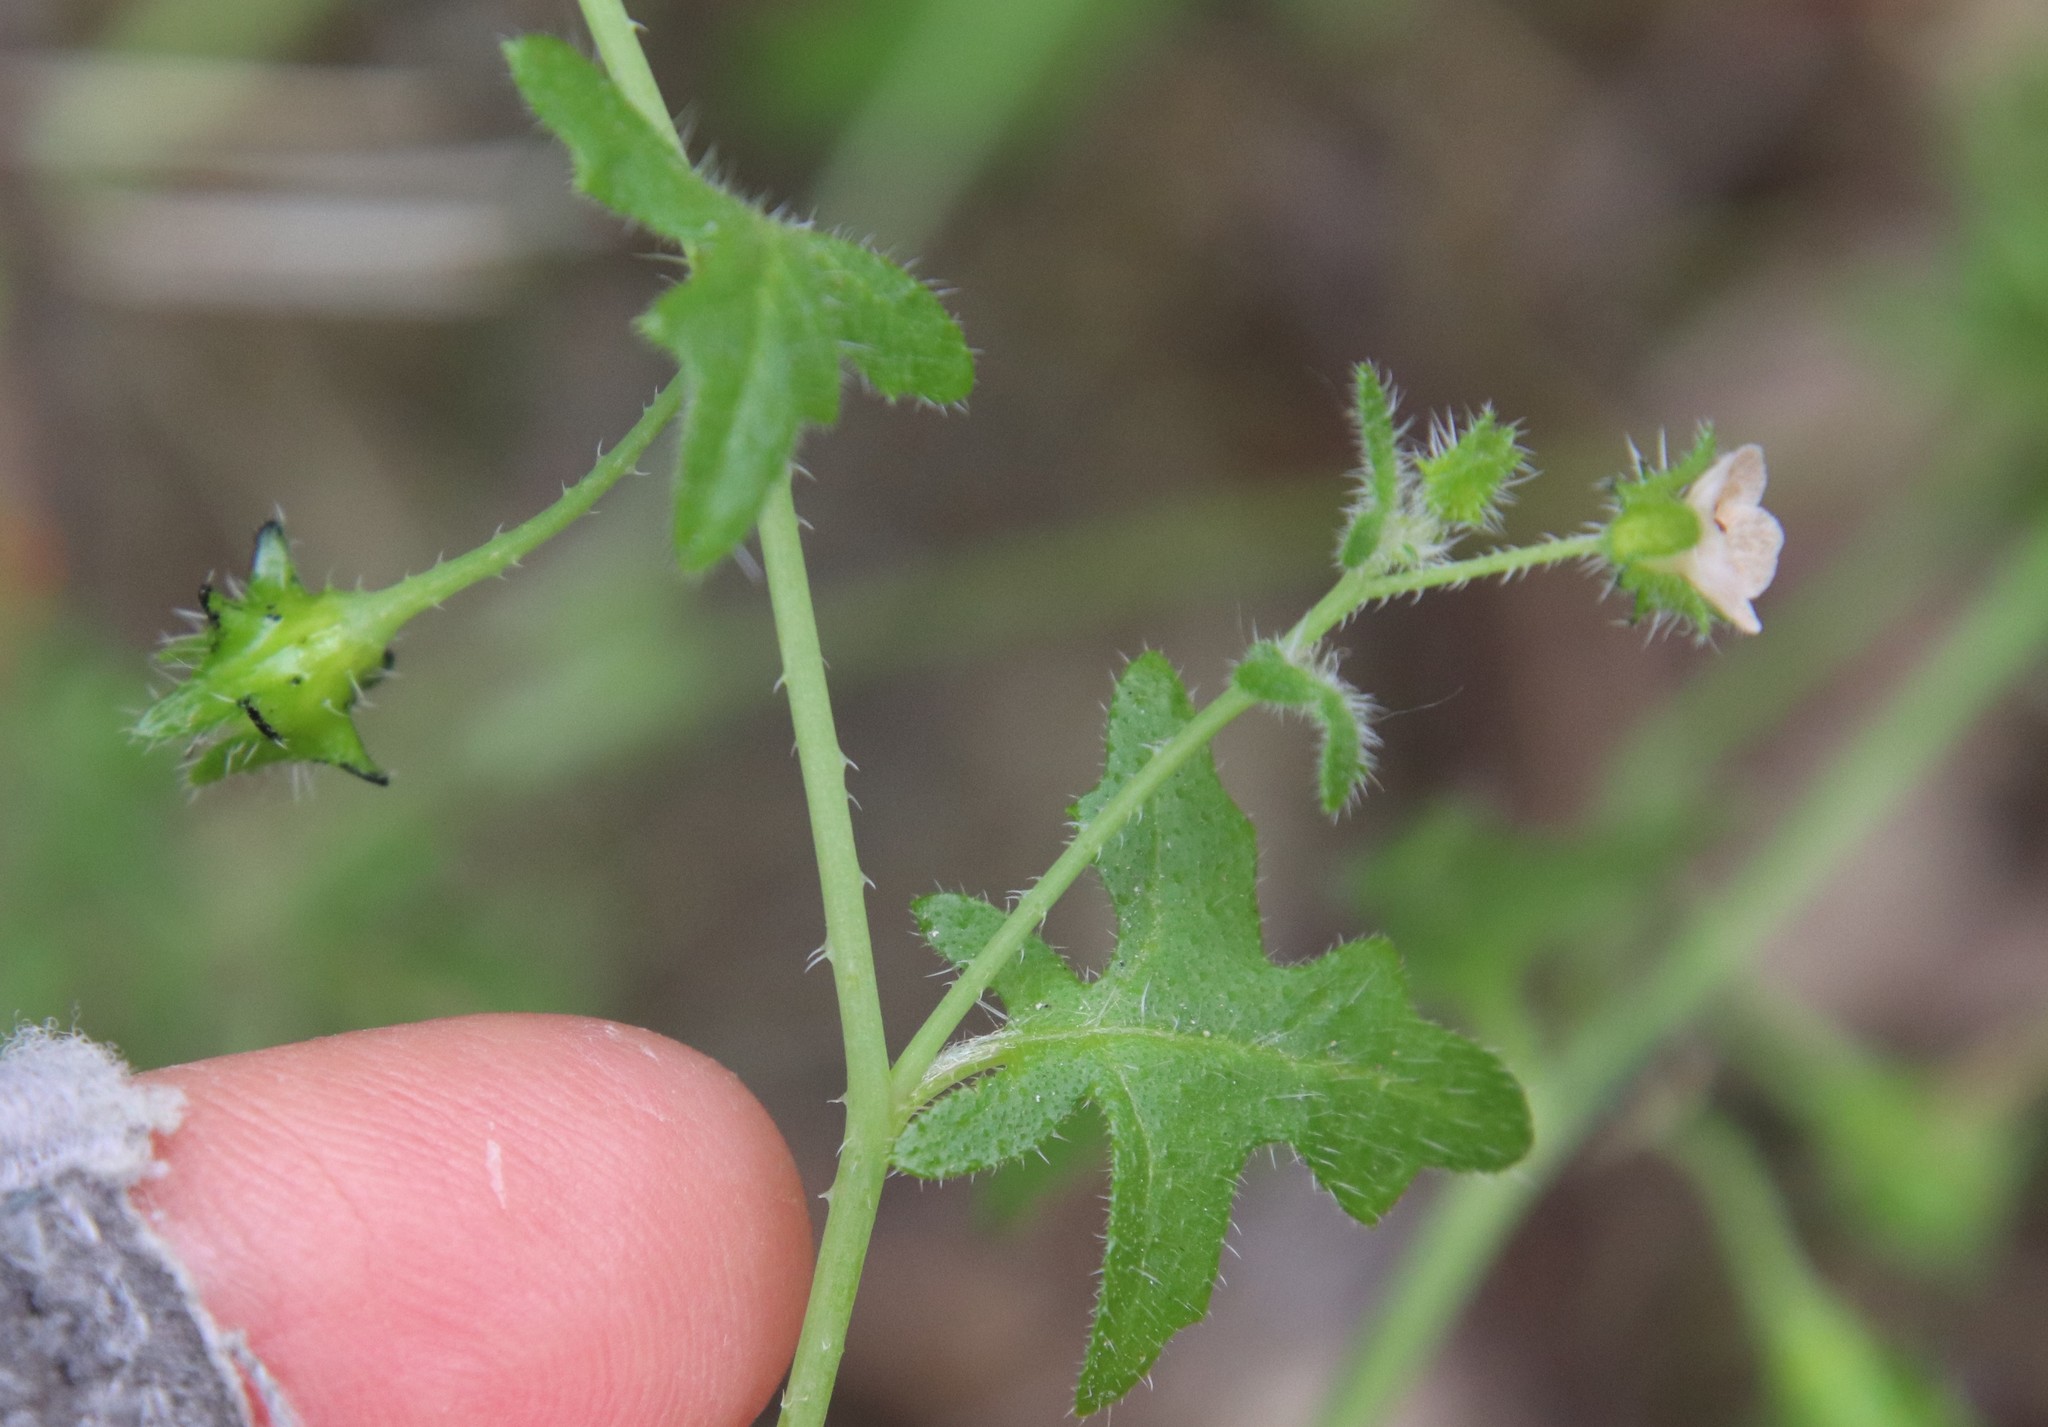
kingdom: Plantae
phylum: Tracheophyta
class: Magnoliopsida
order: Boraginales
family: Hydrophyllaceae
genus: Pholistoma
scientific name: Pholistoma racemosum
